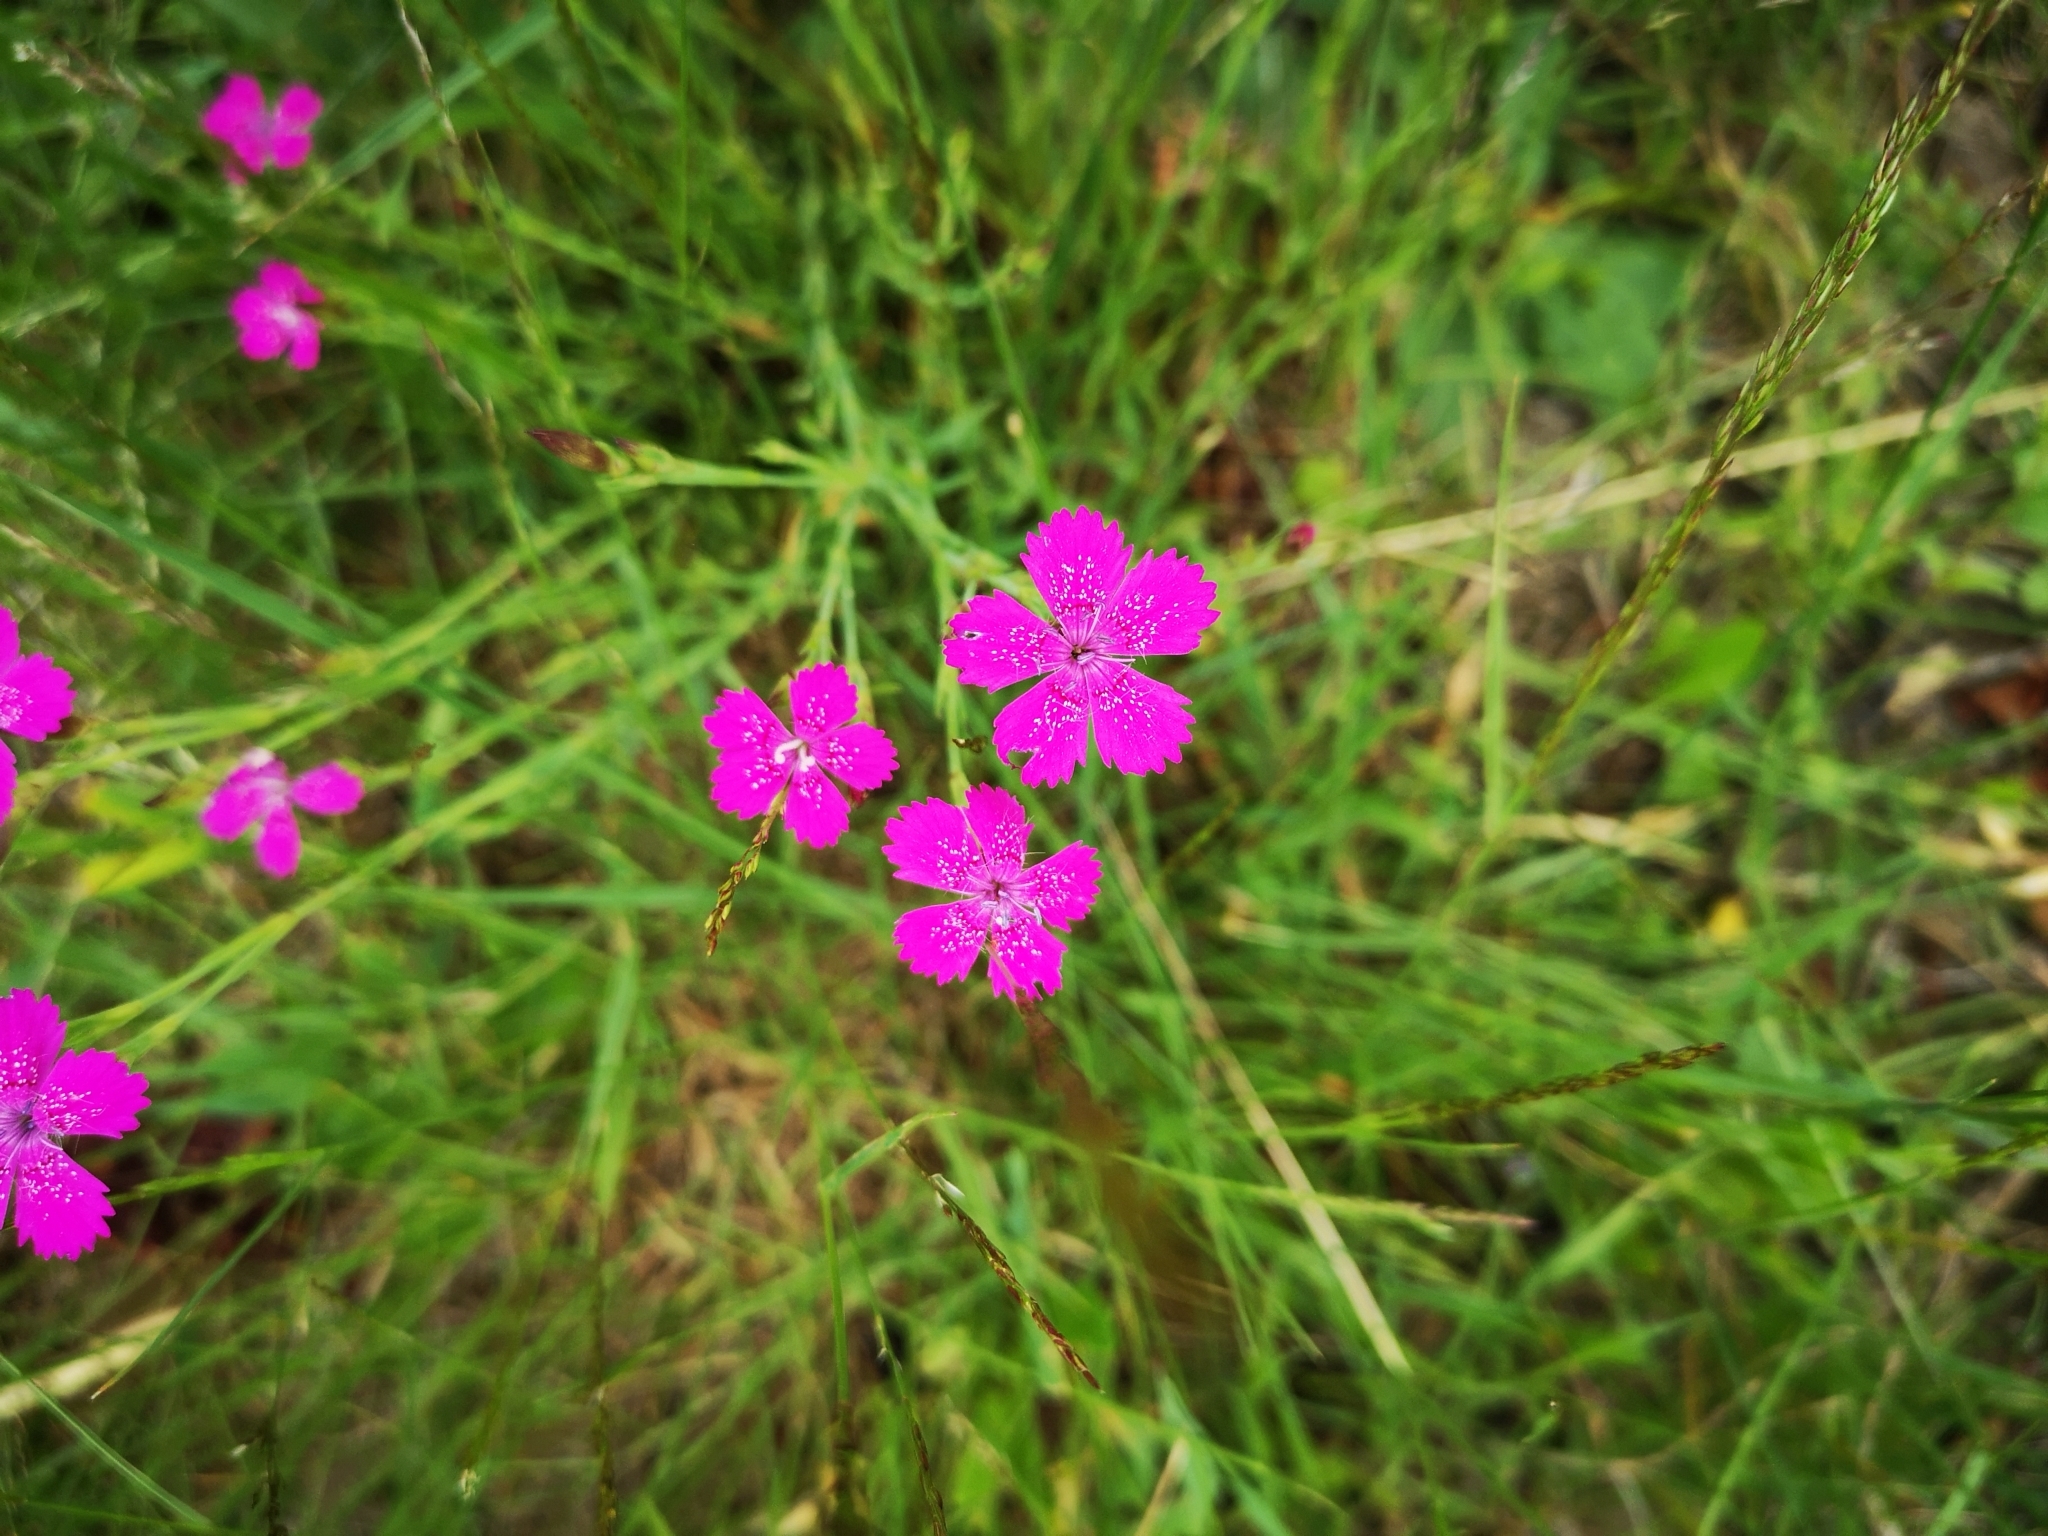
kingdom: Plantae
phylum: Tracheophyta
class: Magnoliopsida
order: Caryophyllales
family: Caryophyllaceae
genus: Dianthus
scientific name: Dianthus deltoides
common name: Maiden pink
